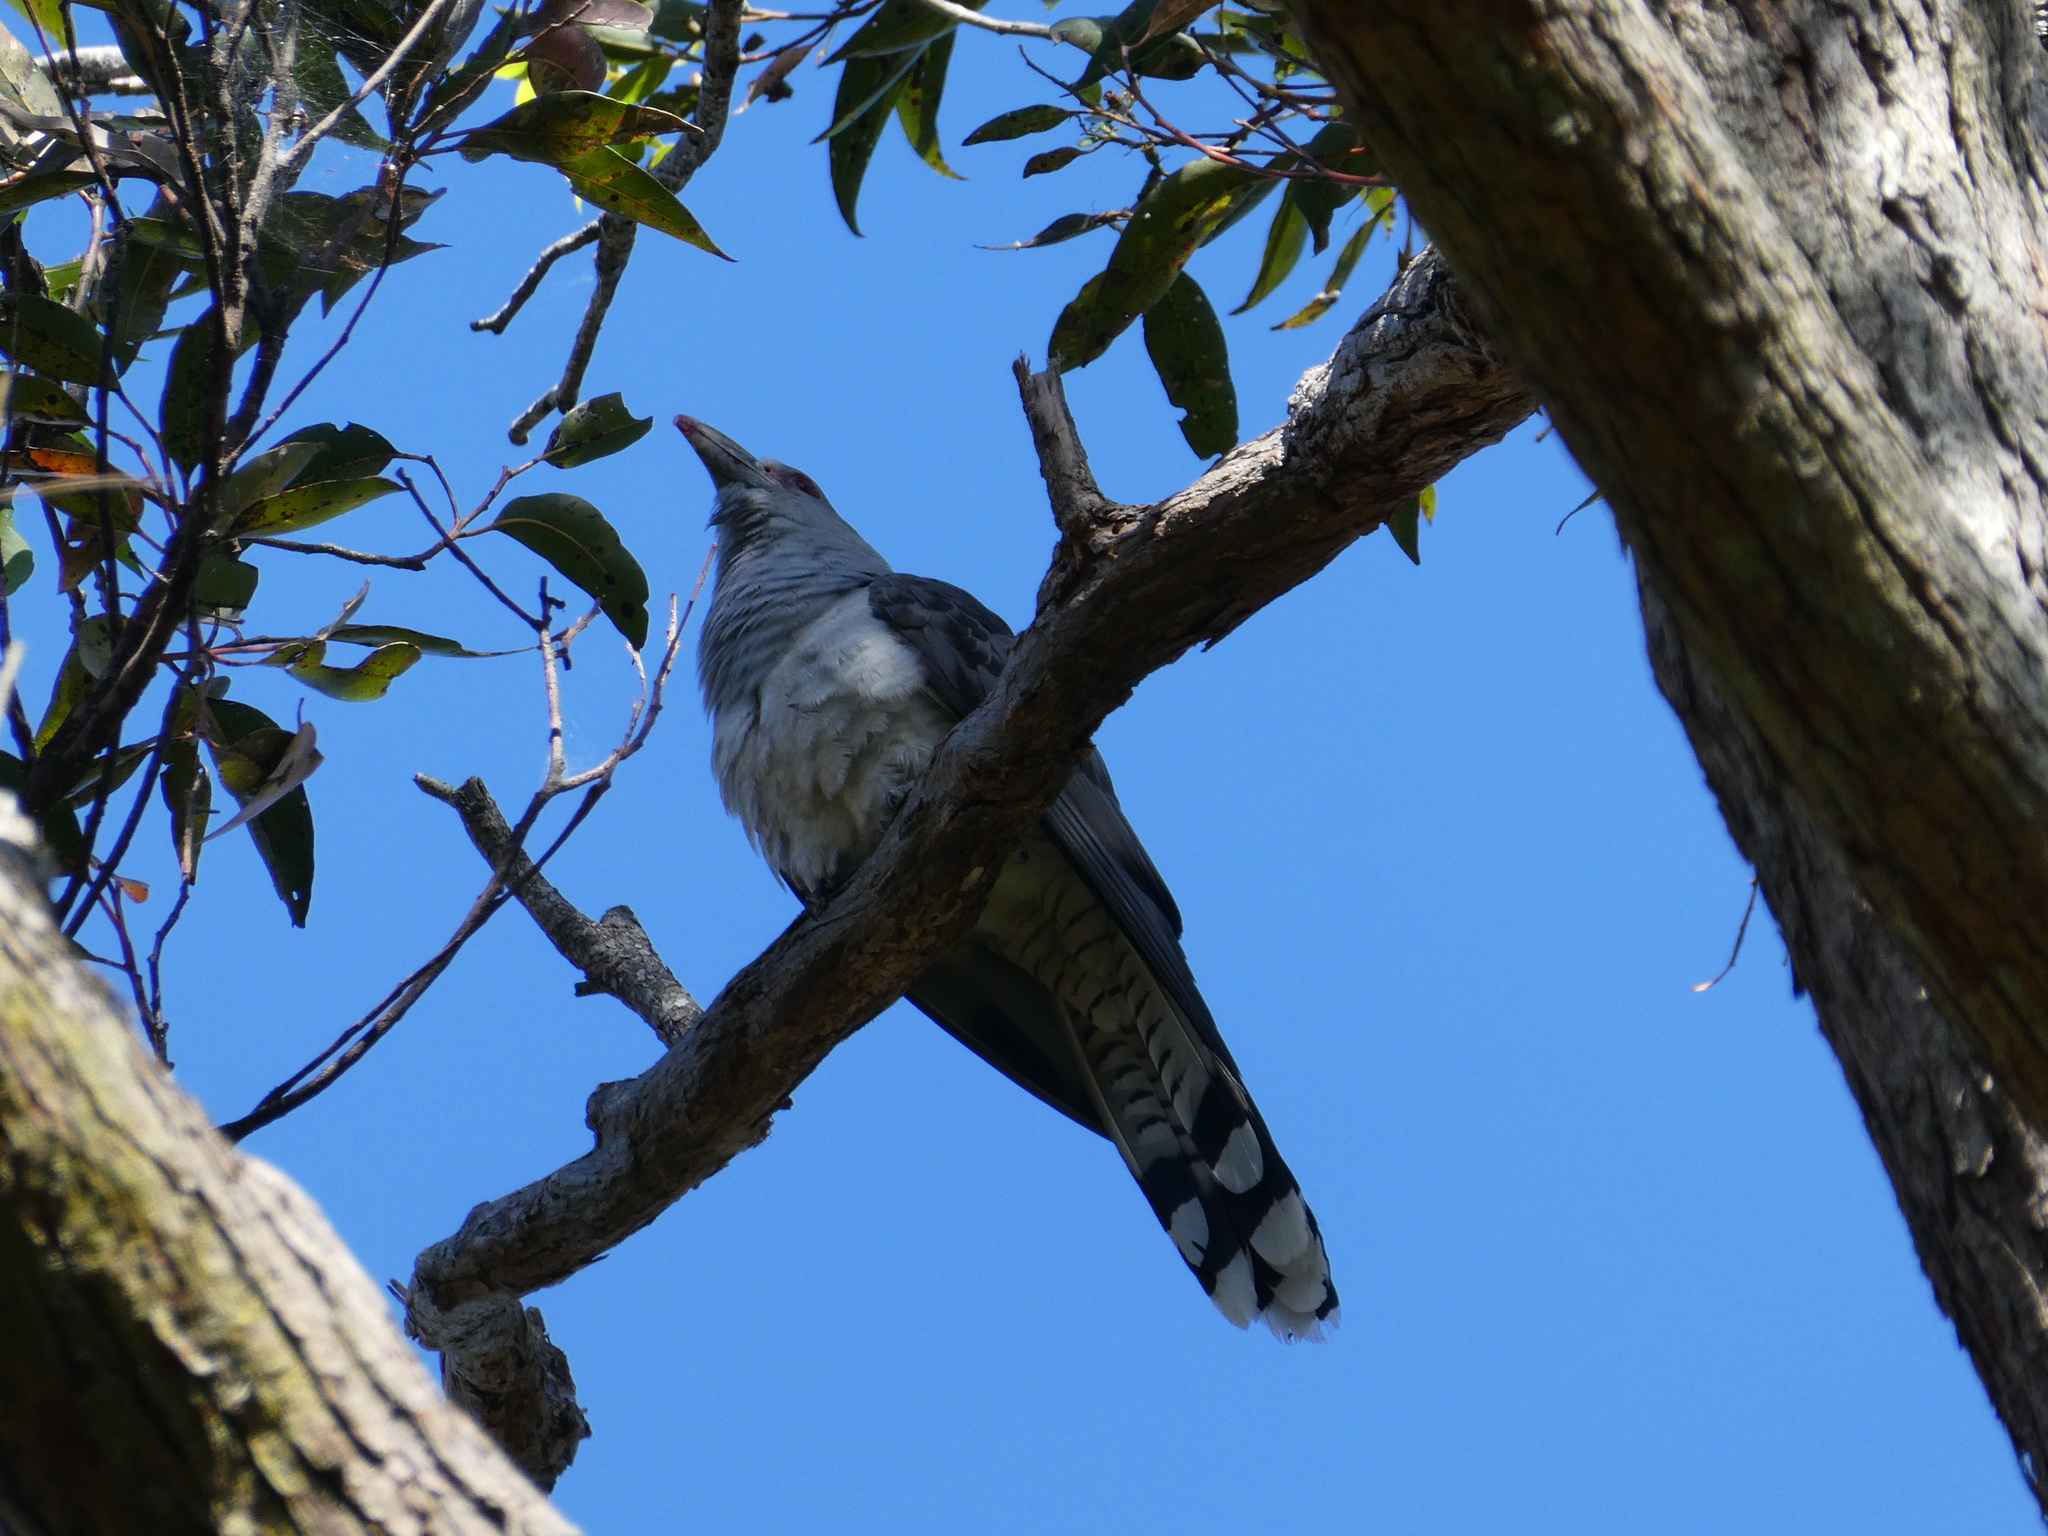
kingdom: Animalia
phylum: Chordata
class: Aves
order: Cuculiformes
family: Cuculidae
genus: Scythrops
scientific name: Scythrops novaehollandiae
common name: Channel-billed cuckoo
